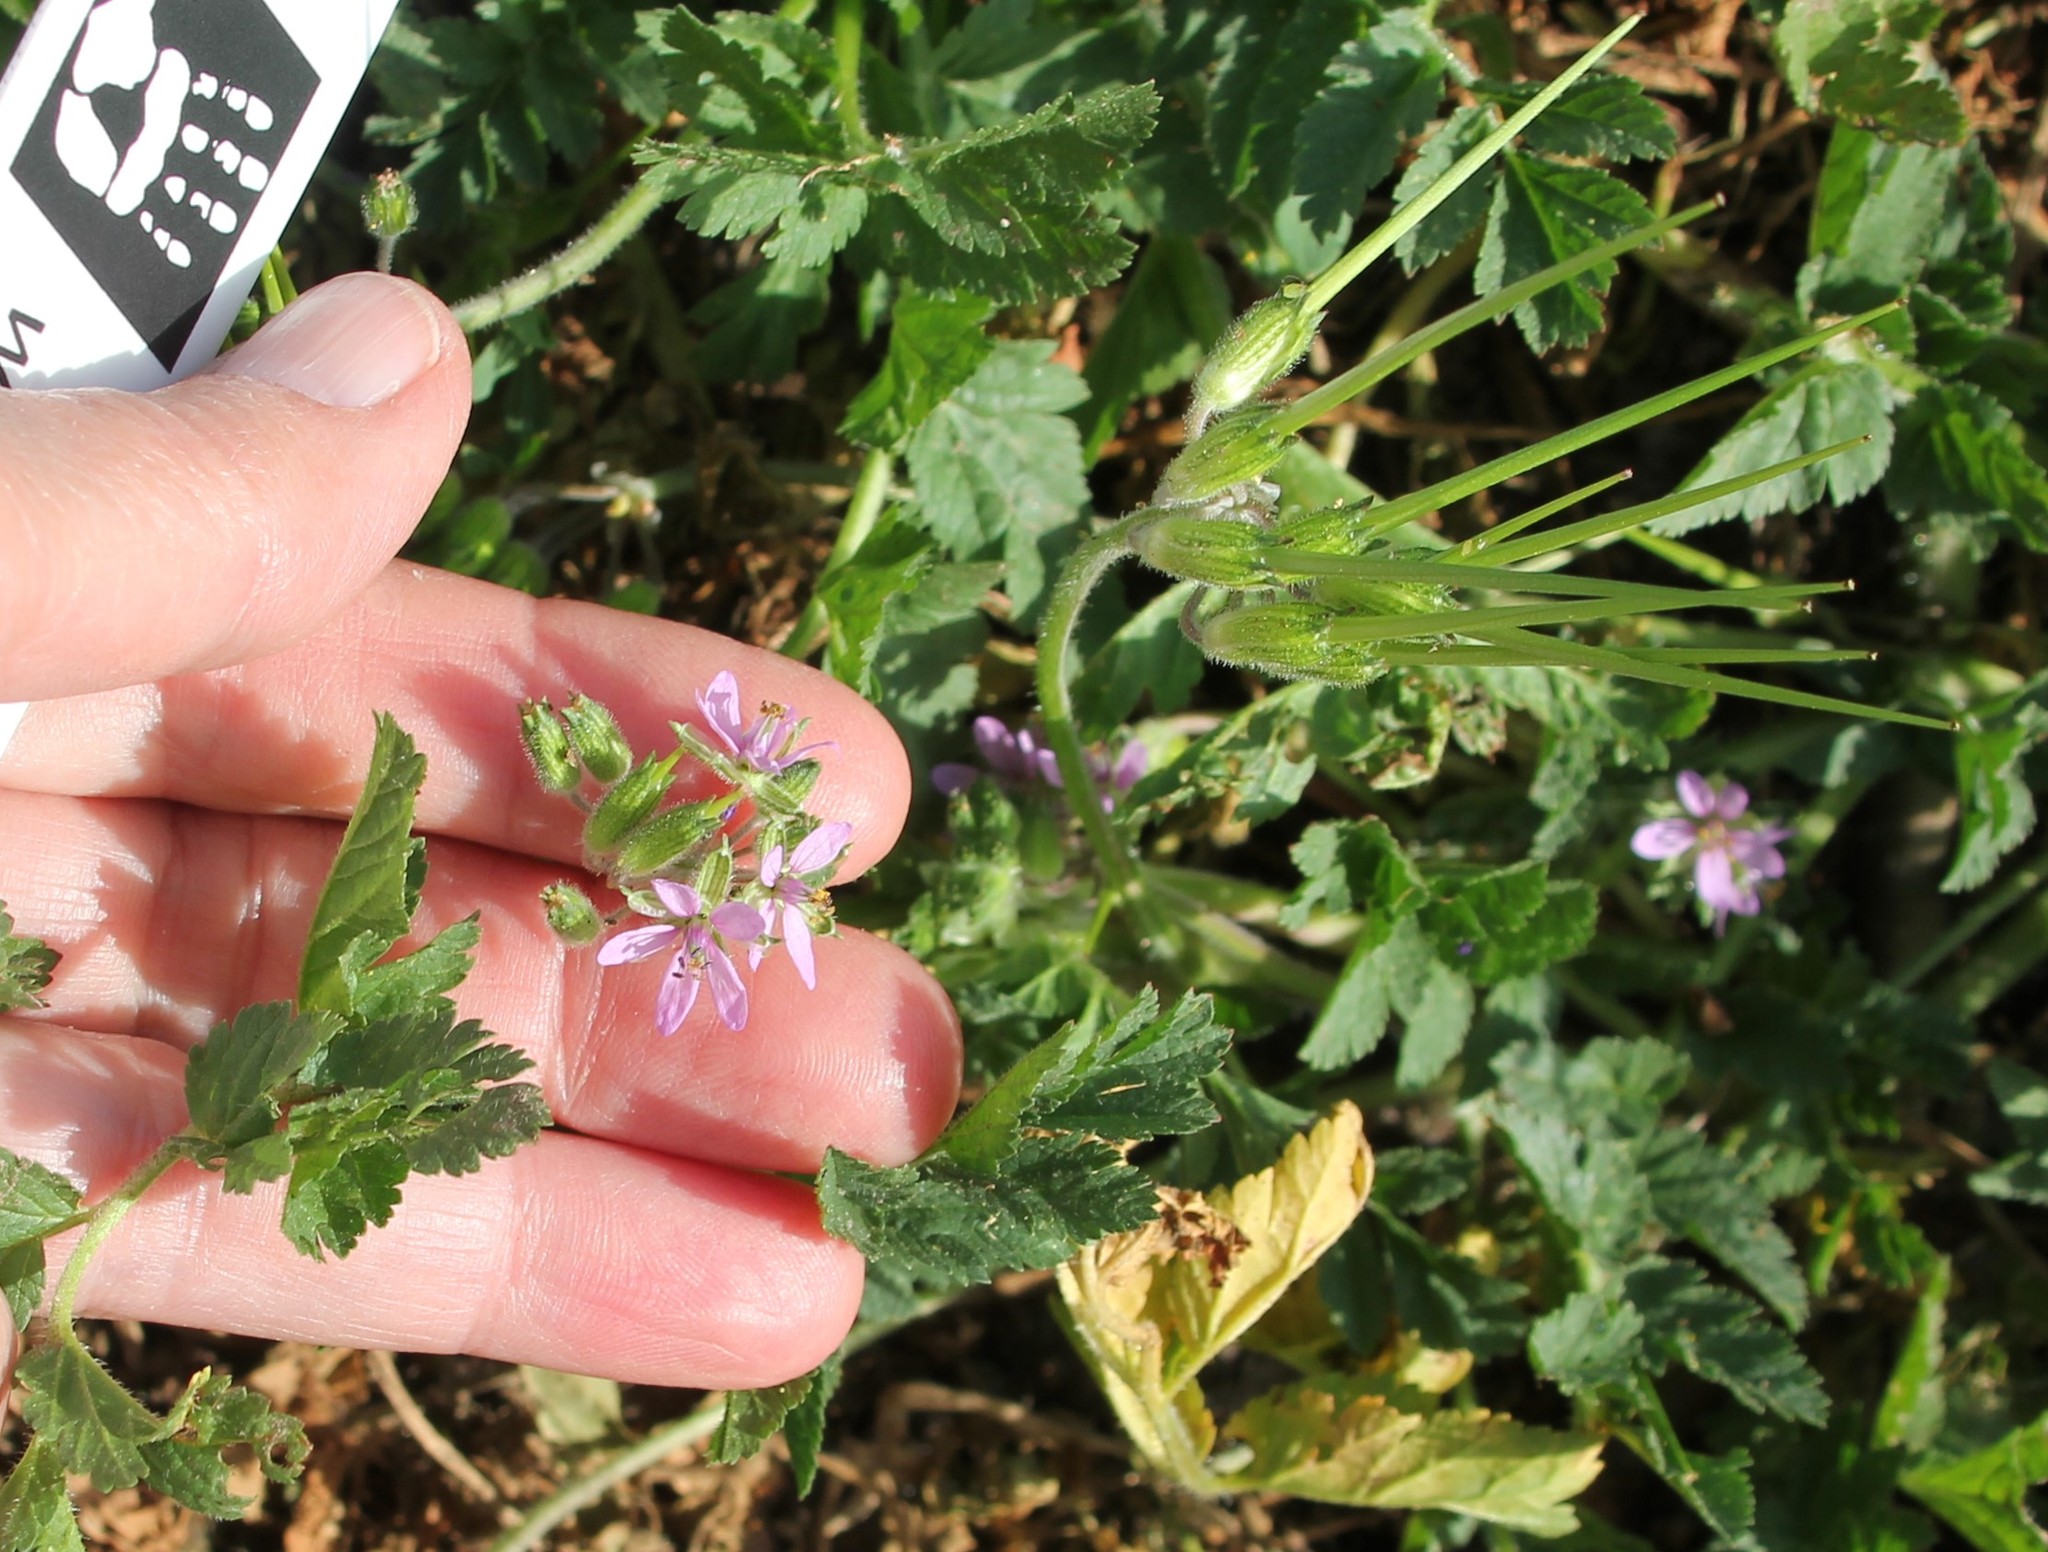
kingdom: Plantae
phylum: Tracheophyta
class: Magnoliopsida
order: Geraniales
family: Geraniaceae
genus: Erodium
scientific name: Erodium moschatum
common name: Musk stork's-bill
